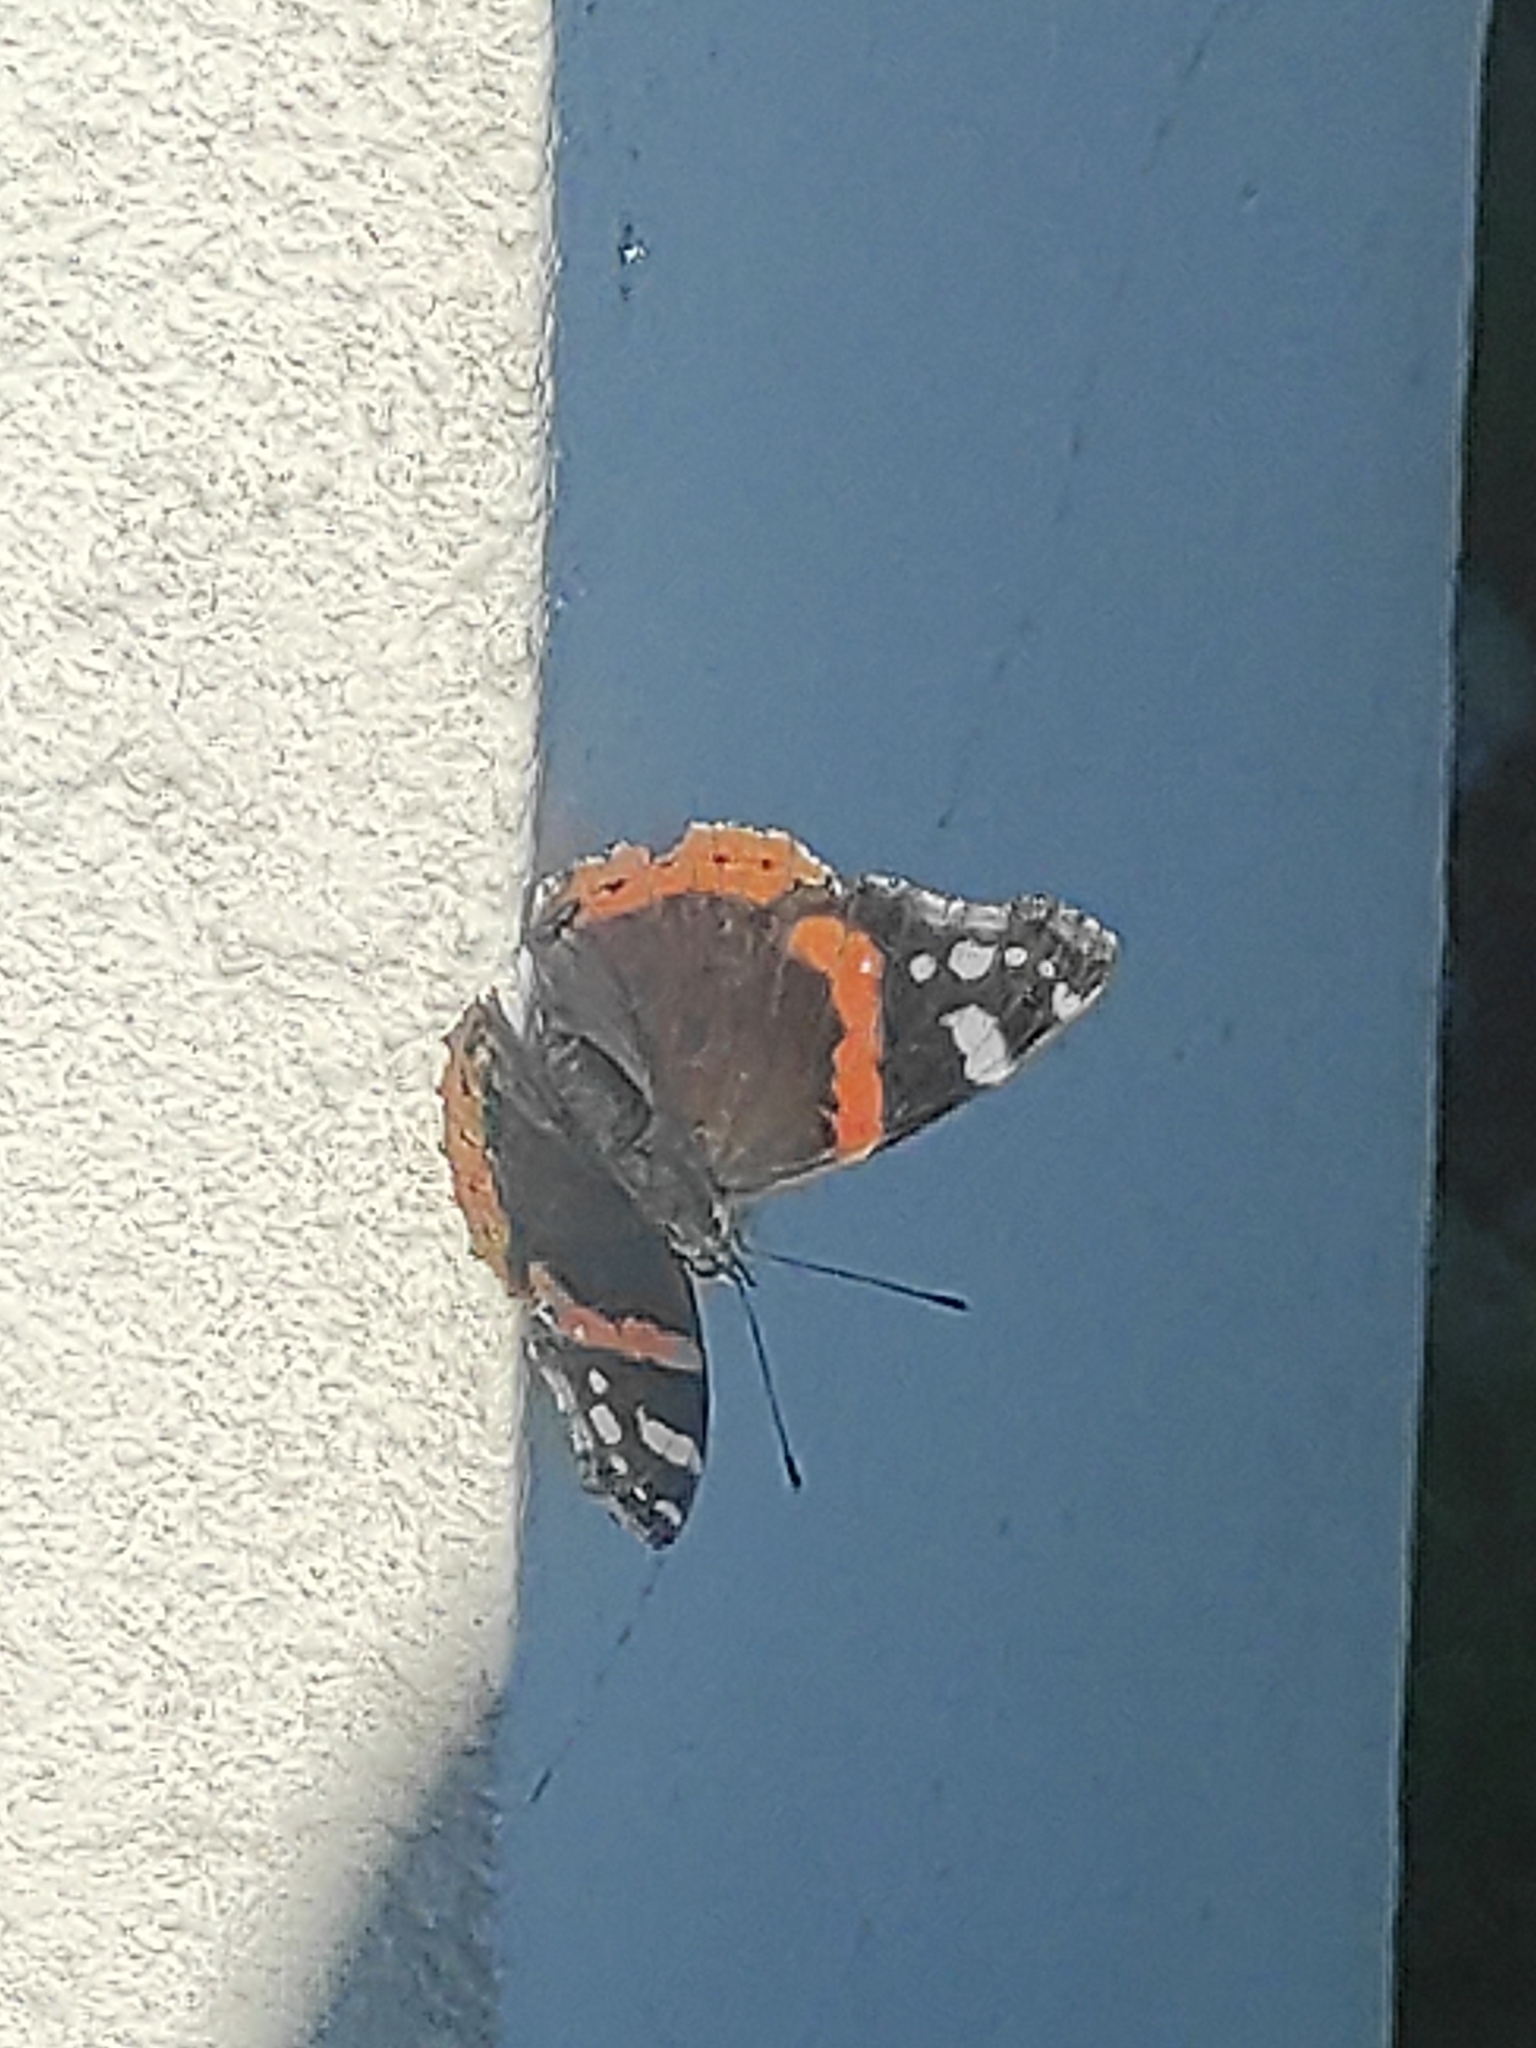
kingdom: Animalia
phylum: Arthropoda
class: Insecta
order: Lepidoptera
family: Nymphalidae
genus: Vanessa
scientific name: Vanessa atalanta
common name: Red admiral
